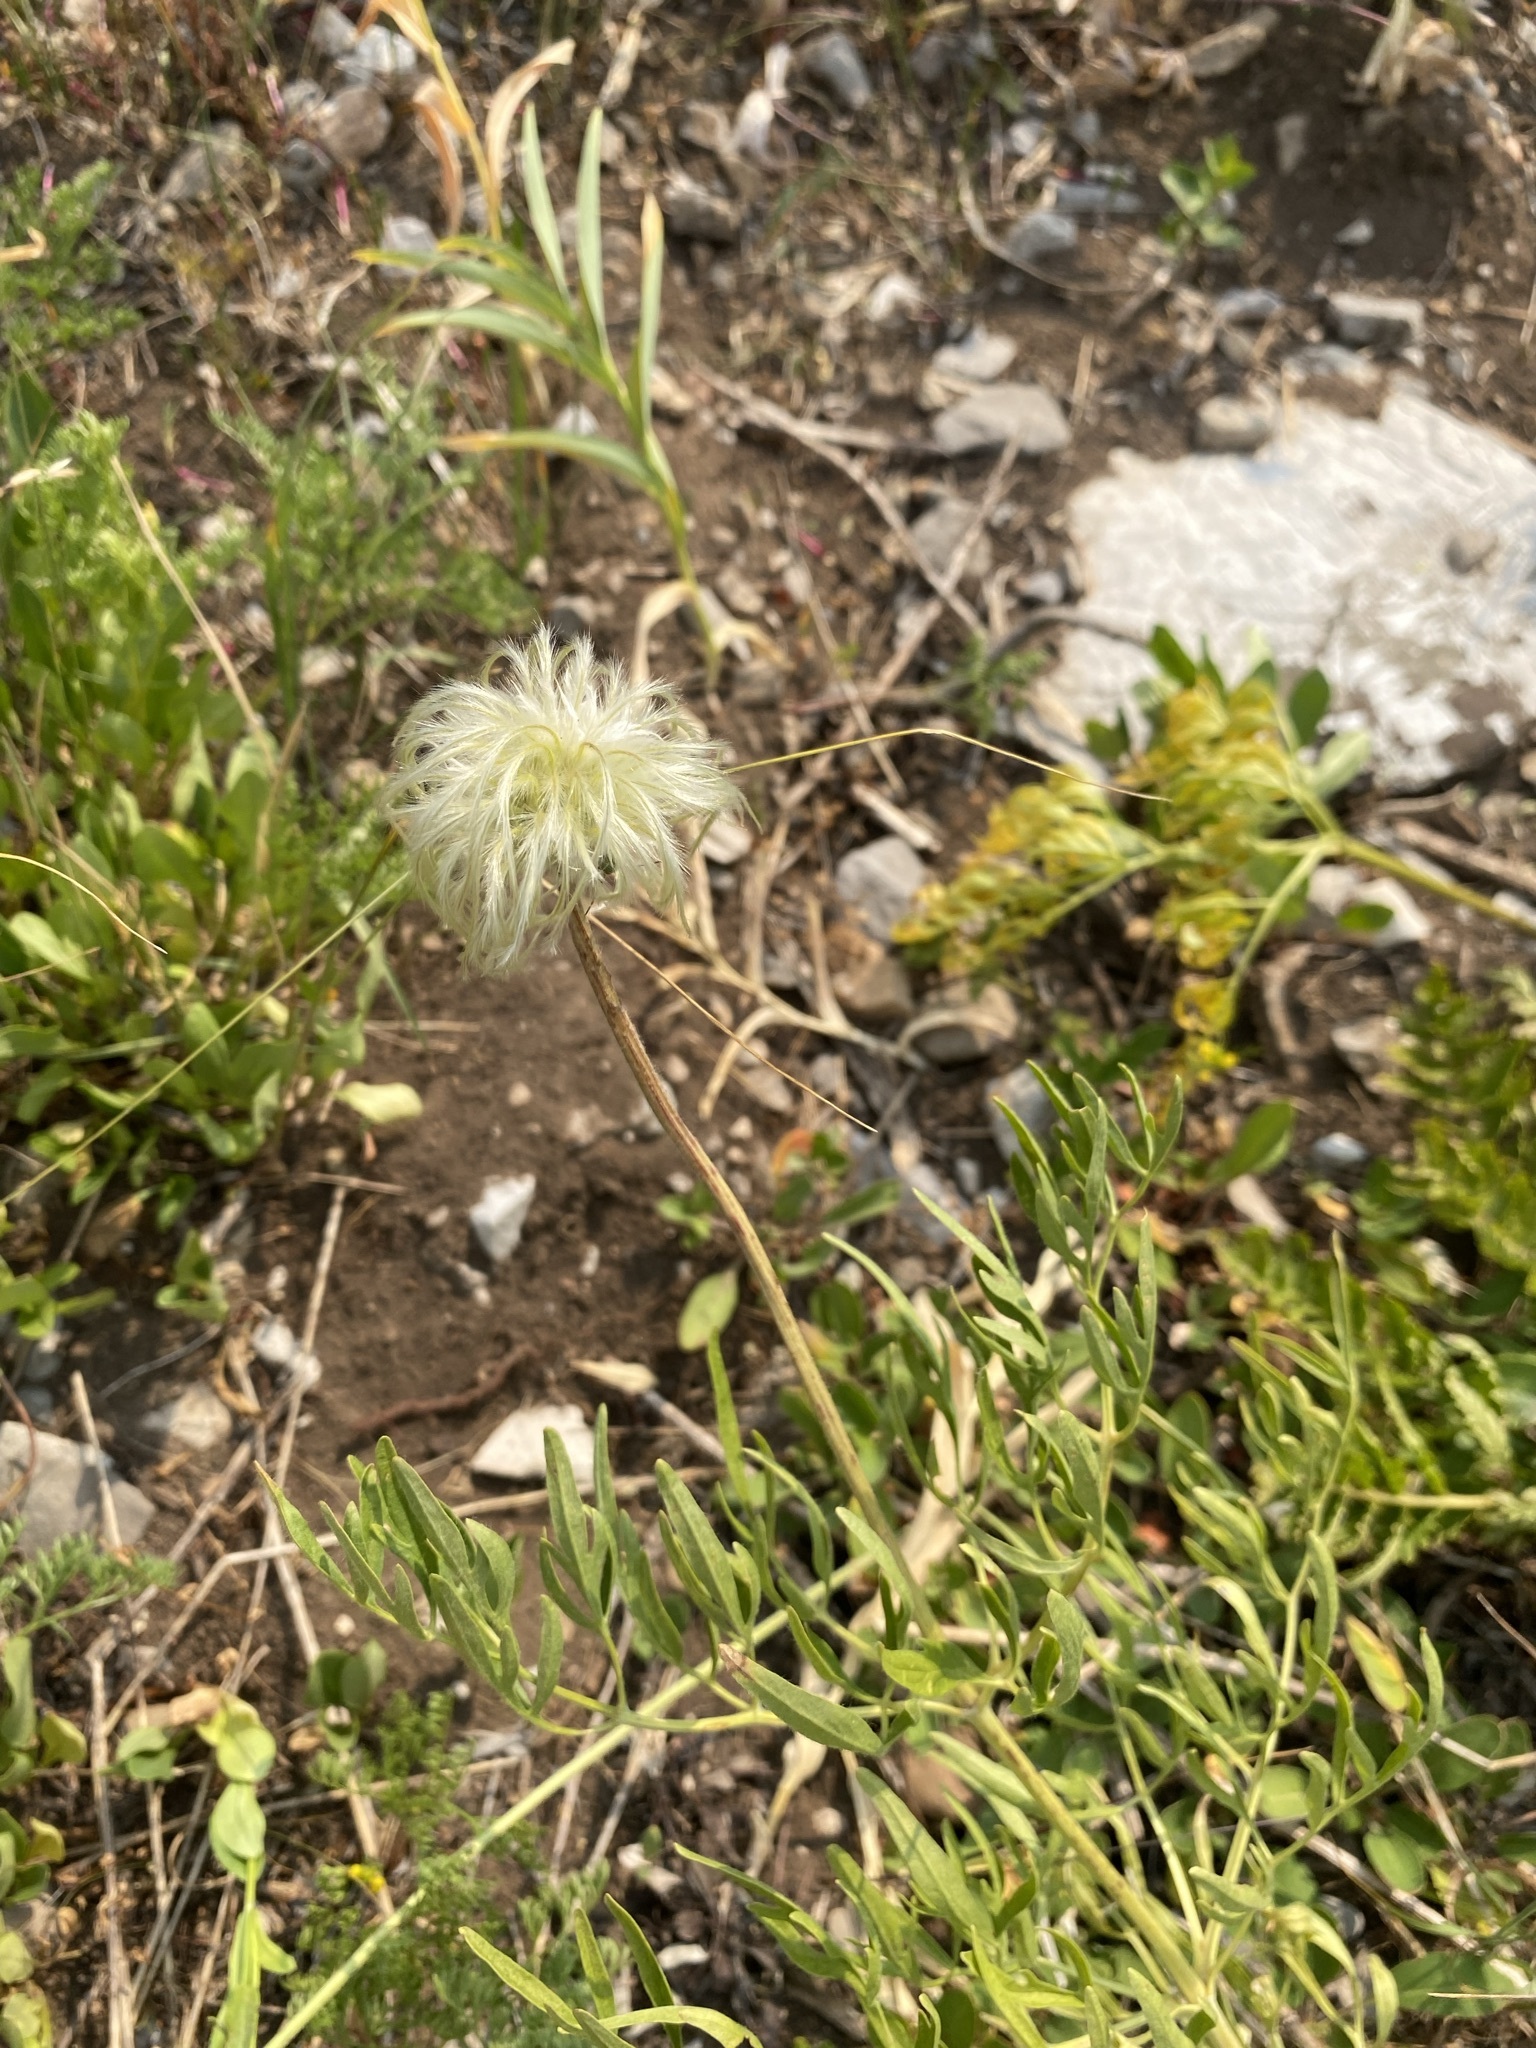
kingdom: Plantae
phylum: Tracheophyta
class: Magnoliopsida
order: Ranunculales
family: Ranunculaceae
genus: Clematis
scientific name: Clematis hirsutissima
